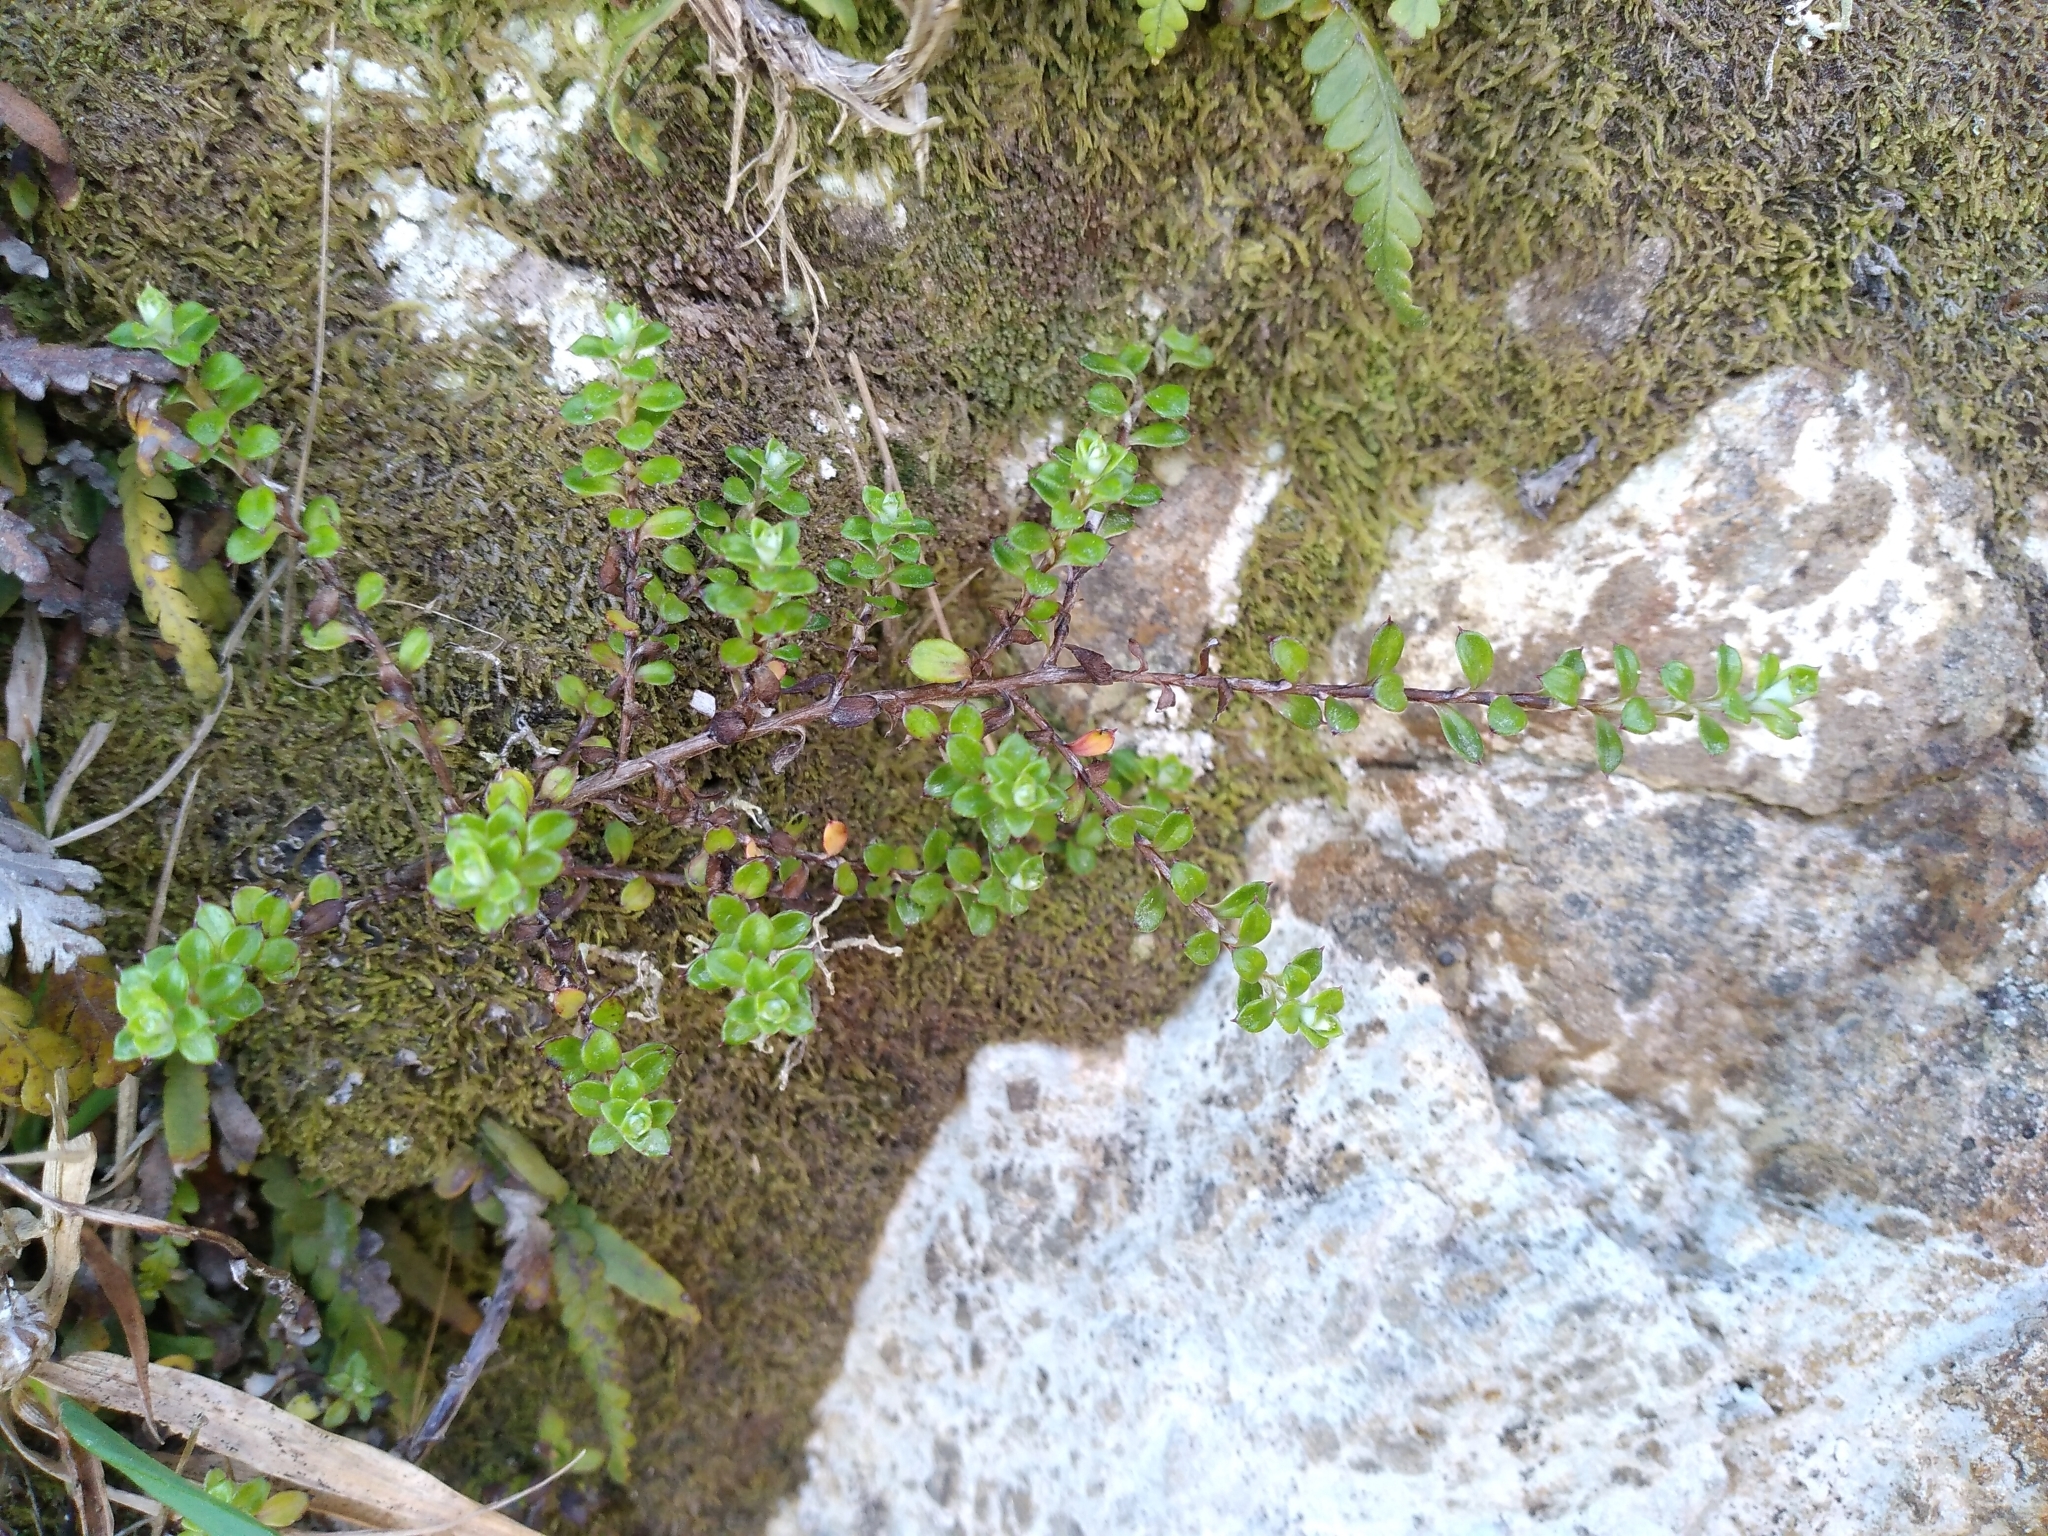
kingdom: Plantae
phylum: Tracheophyta
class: Magnoliopsida
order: Asterales
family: Asteraceae
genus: Anaphalioides
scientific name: Anaphalioides bellidioides
